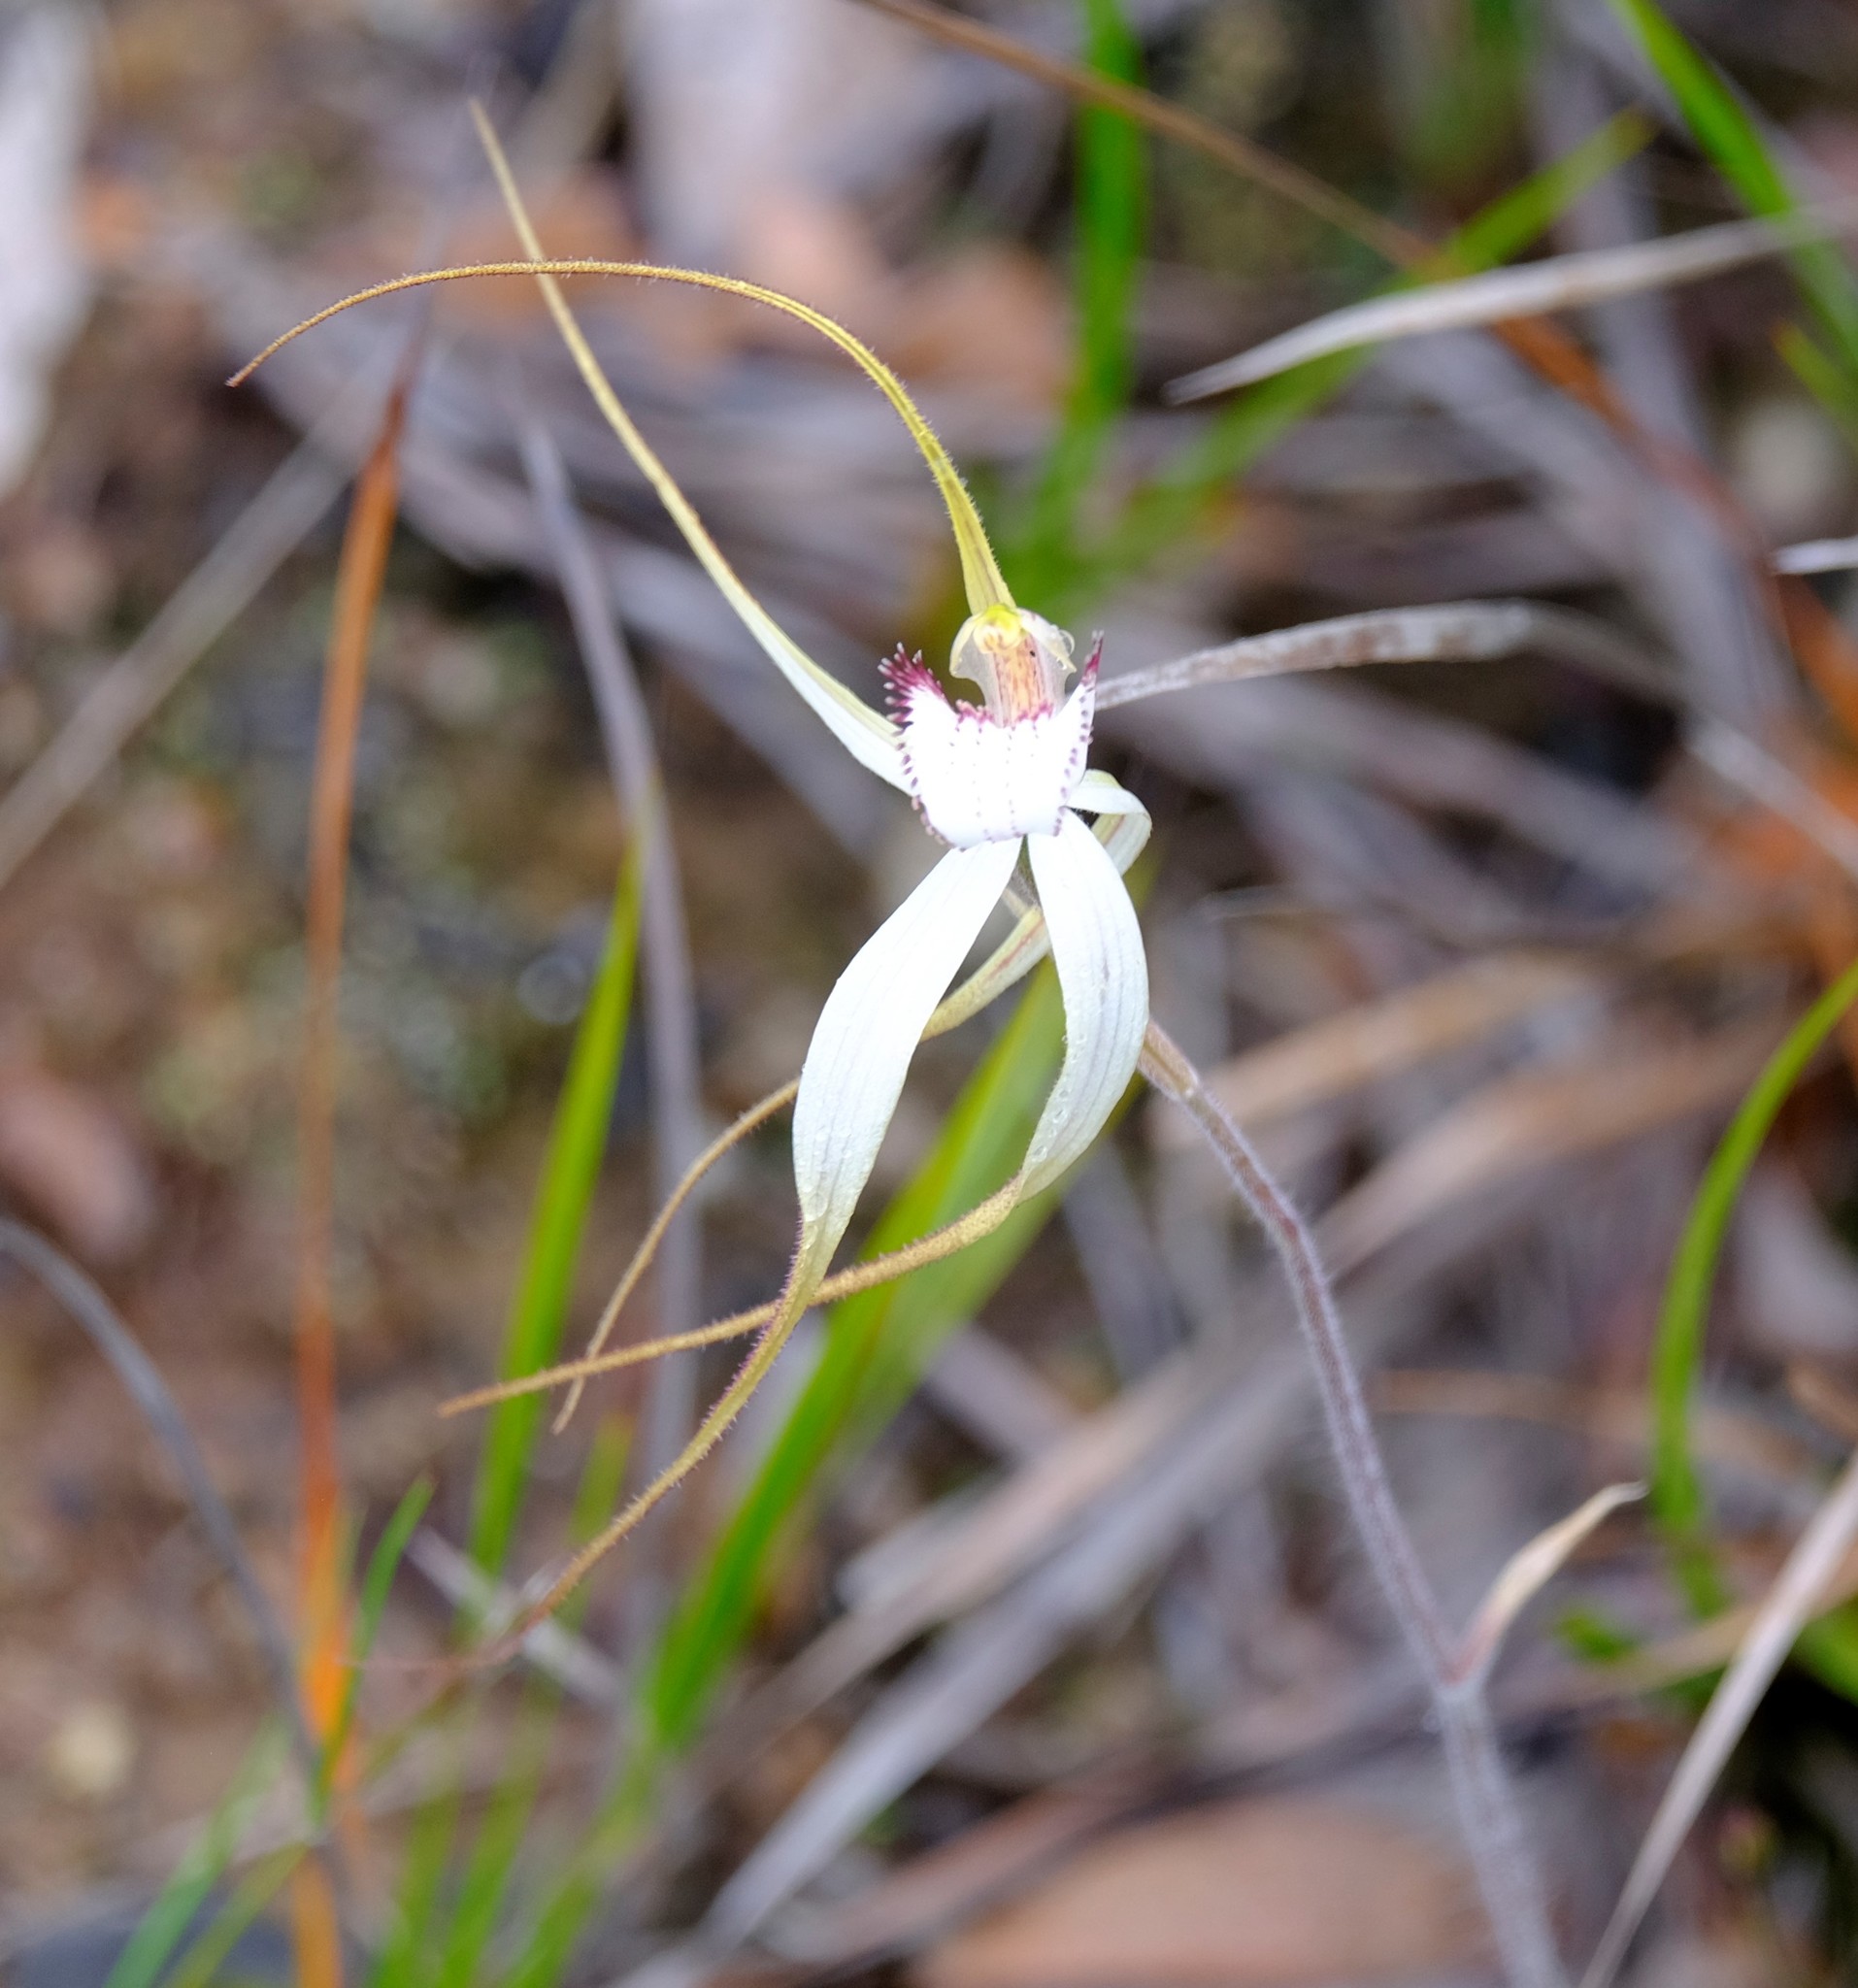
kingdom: Plantae
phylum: Tracheophyta
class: Liliopsida
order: Asparagales
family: Orchidaceae
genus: Caladenia
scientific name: Caladenia venusta
